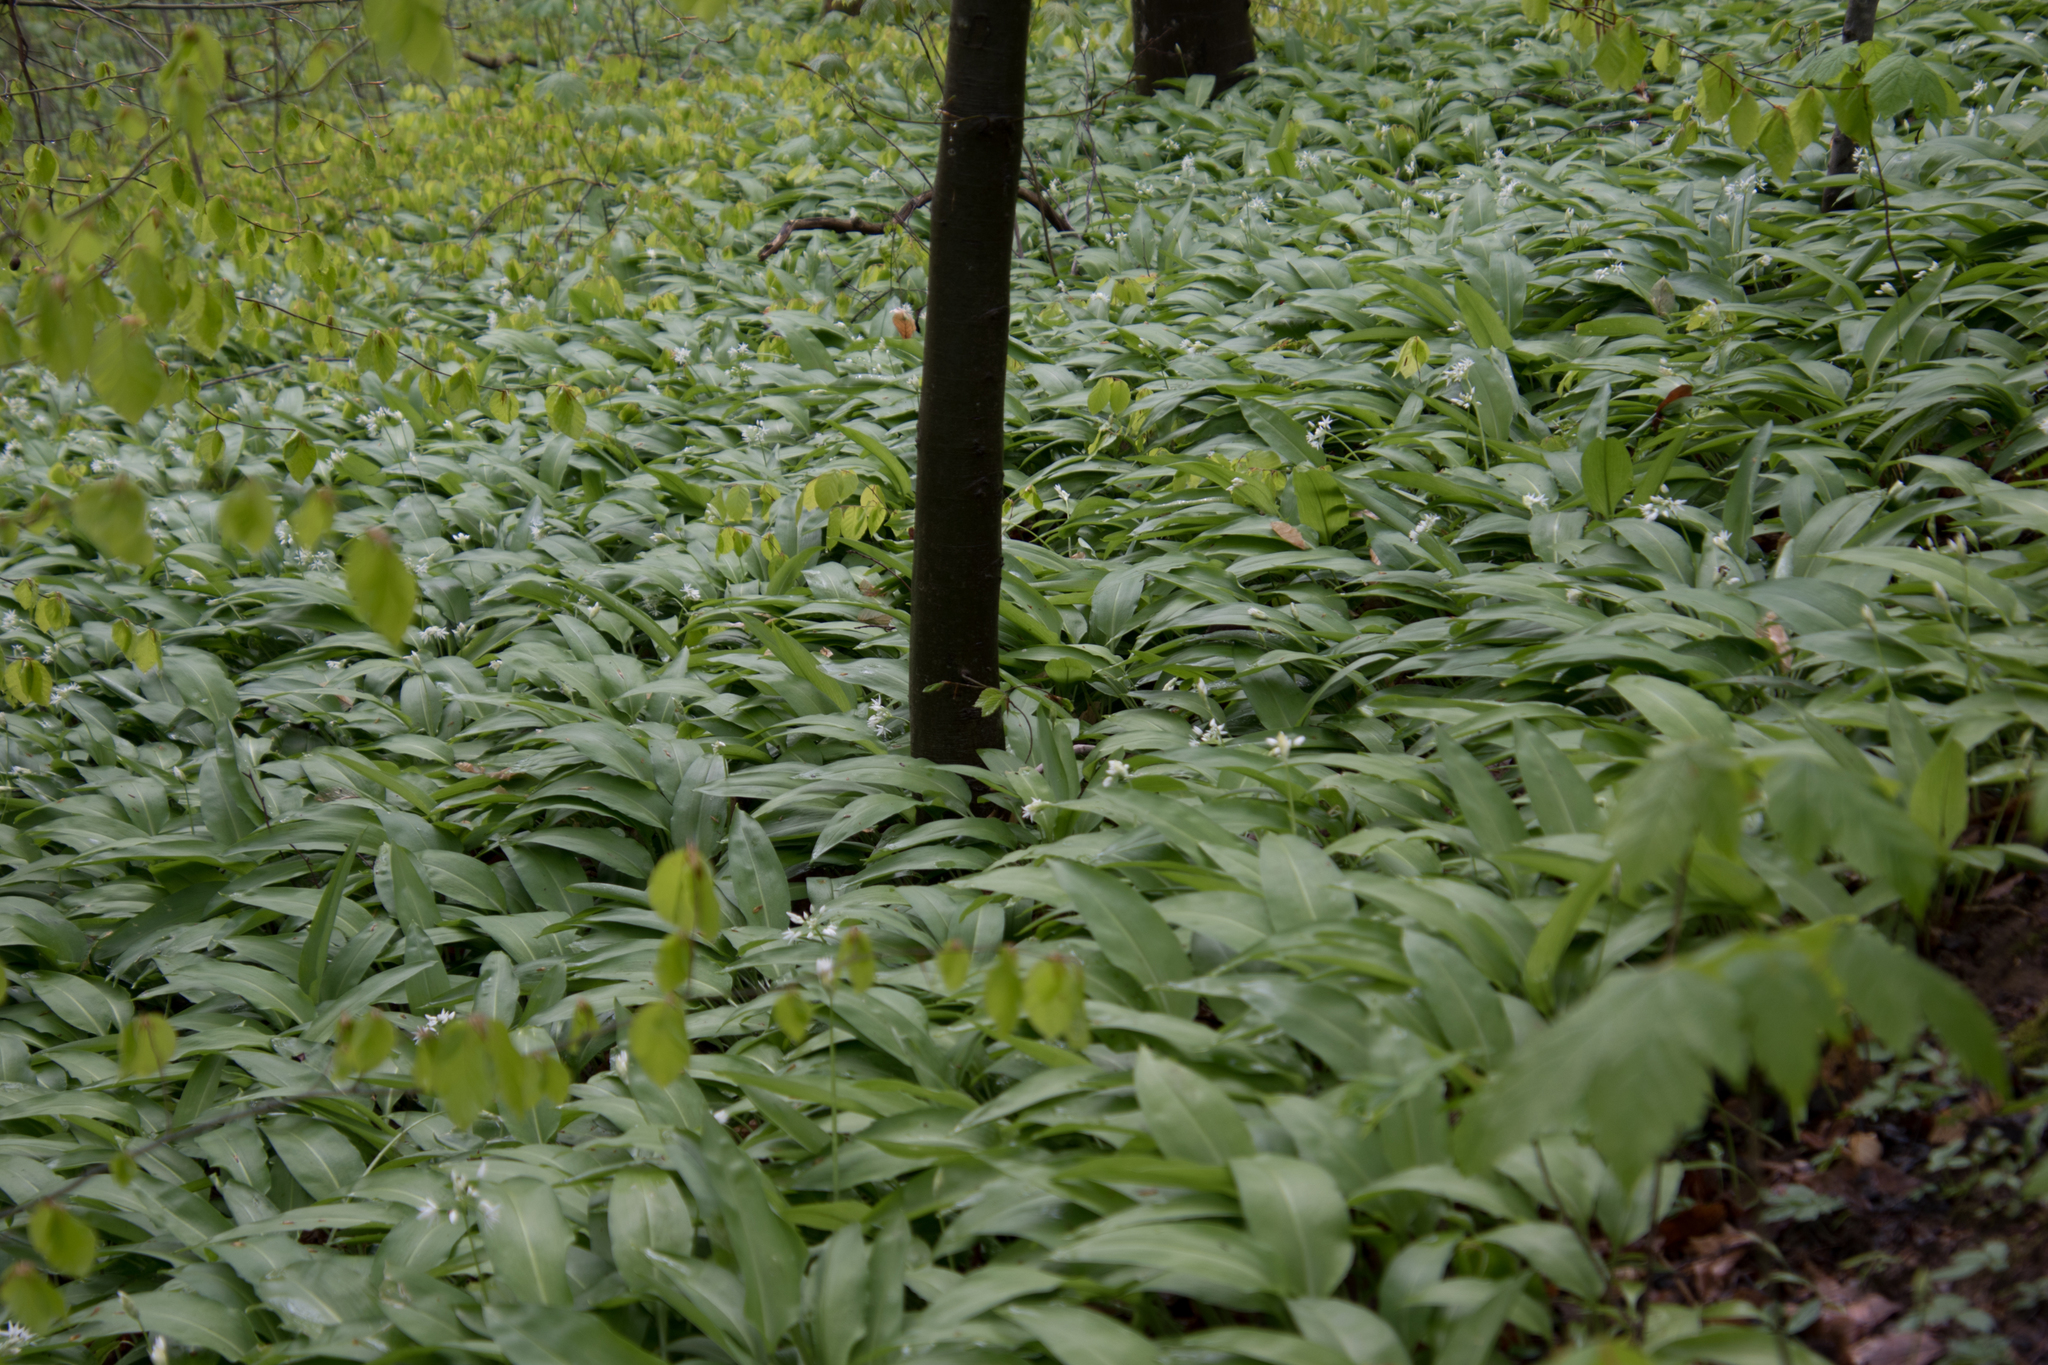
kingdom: Plantae
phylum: Tracheophyta
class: Liliopsida
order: Asparagales
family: Amaryllidaceae
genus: Allium
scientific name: Allium ursinum
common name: Ramsons
